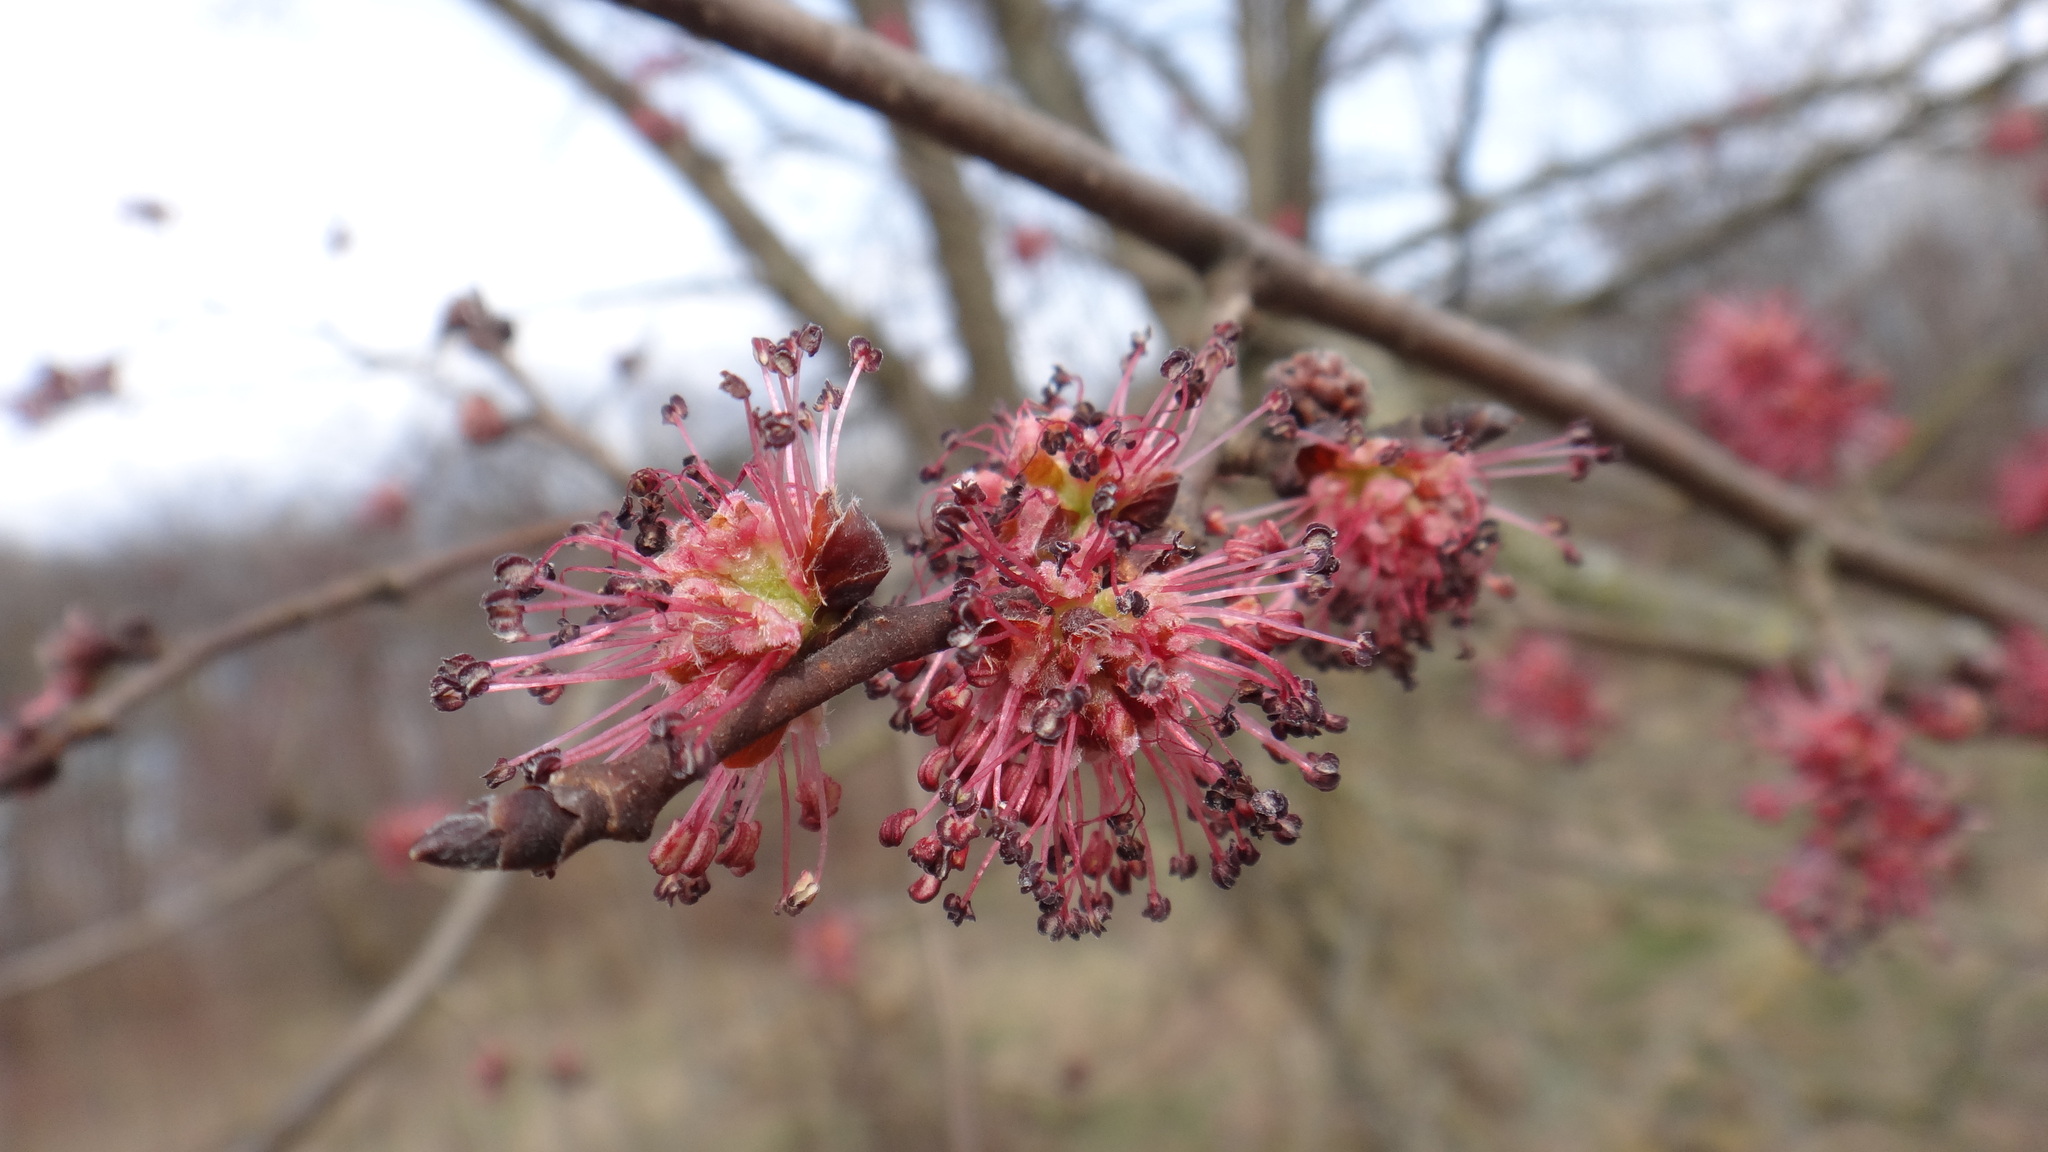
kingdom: Plantae
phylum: Tracheophyta
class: Magnoliopsida
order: Rosales
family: Ulmaceae
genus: Ulmus
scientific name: Ulmus minor
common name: Small-leaved elm
